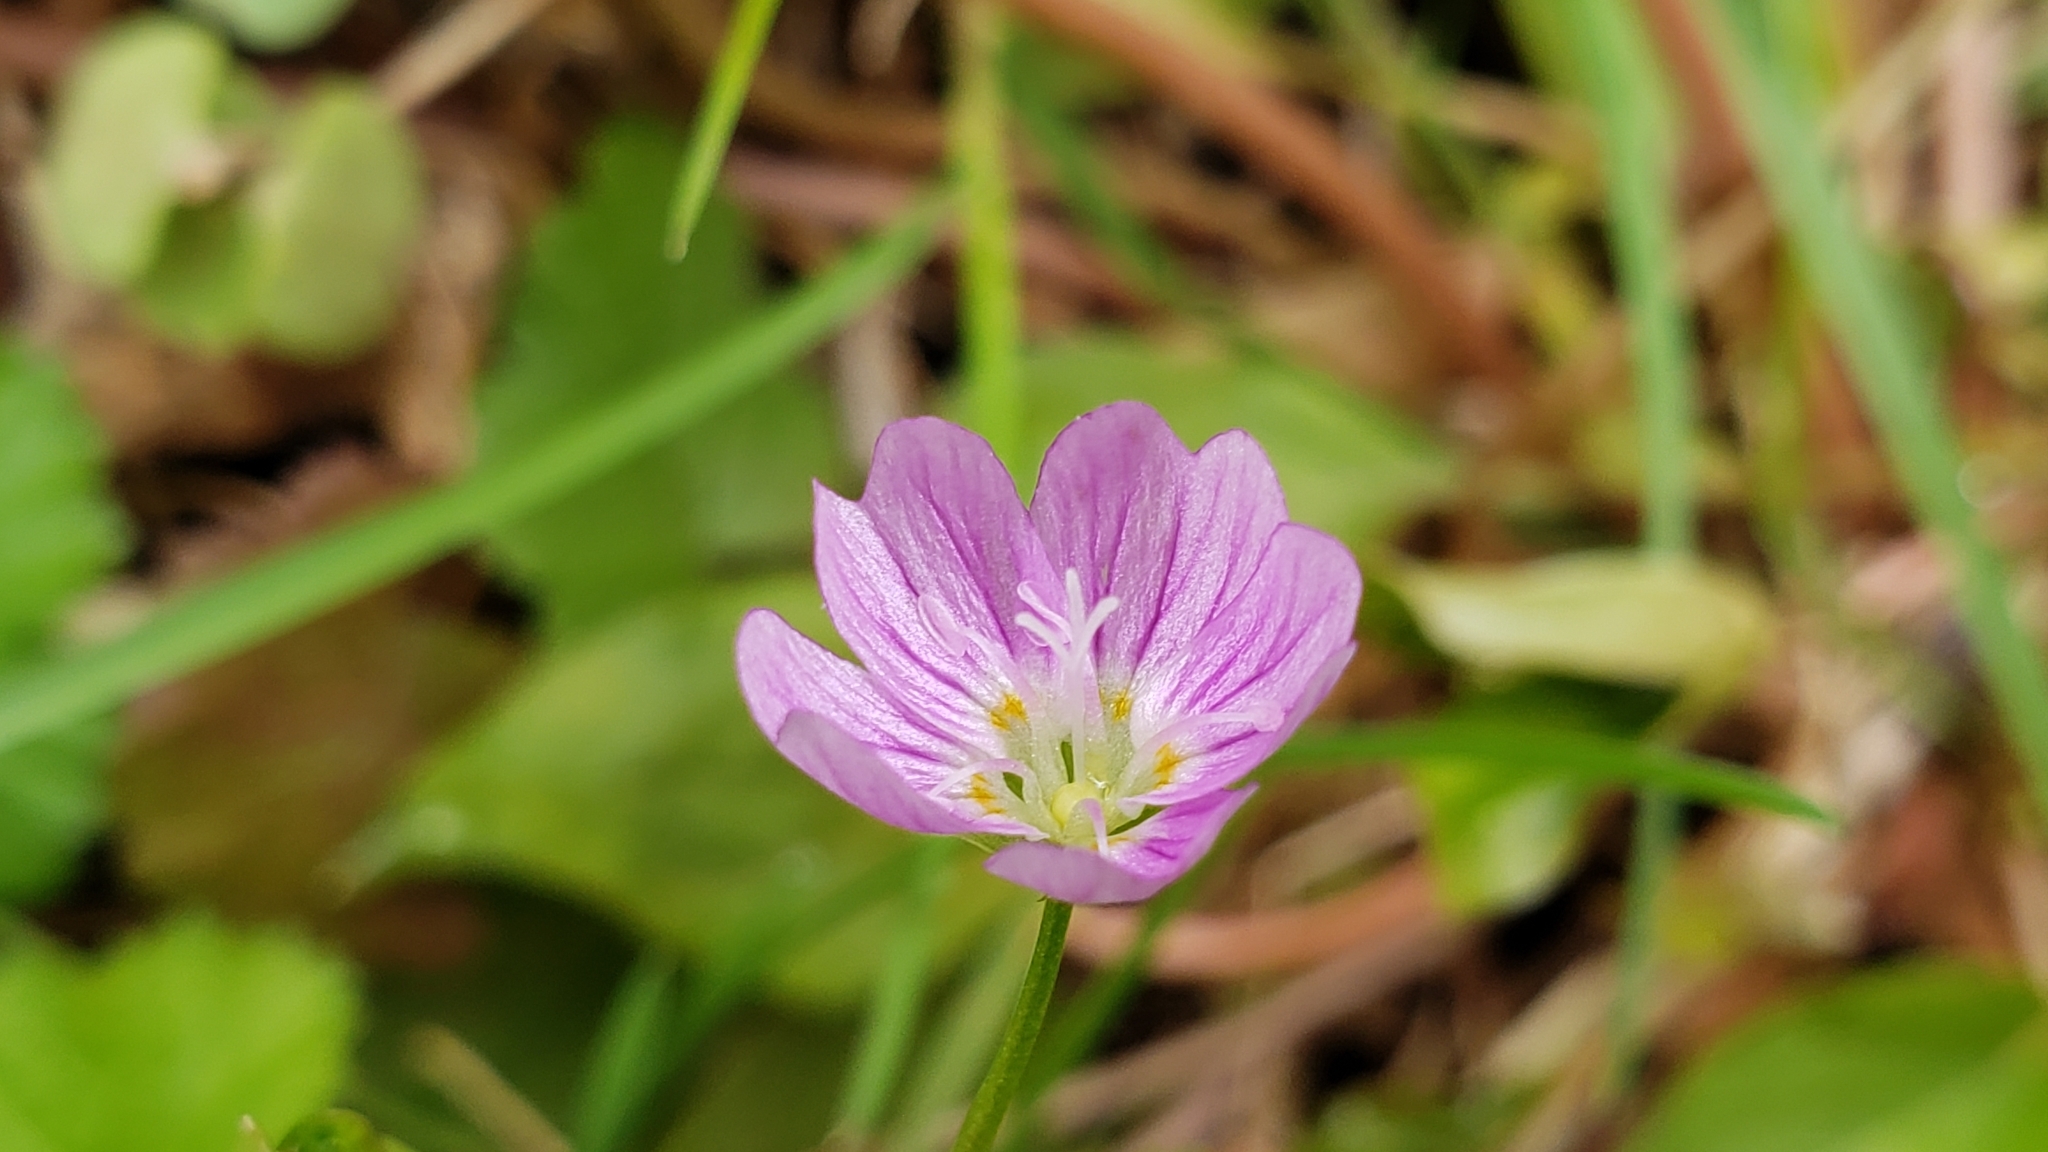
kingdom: Plantae
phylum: Tracheophyta
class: Magnoliopsida
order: Caryophyllales
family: Montiaceae
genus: Claytonia
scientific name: Claytonia sibirica
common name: Pink purslane
